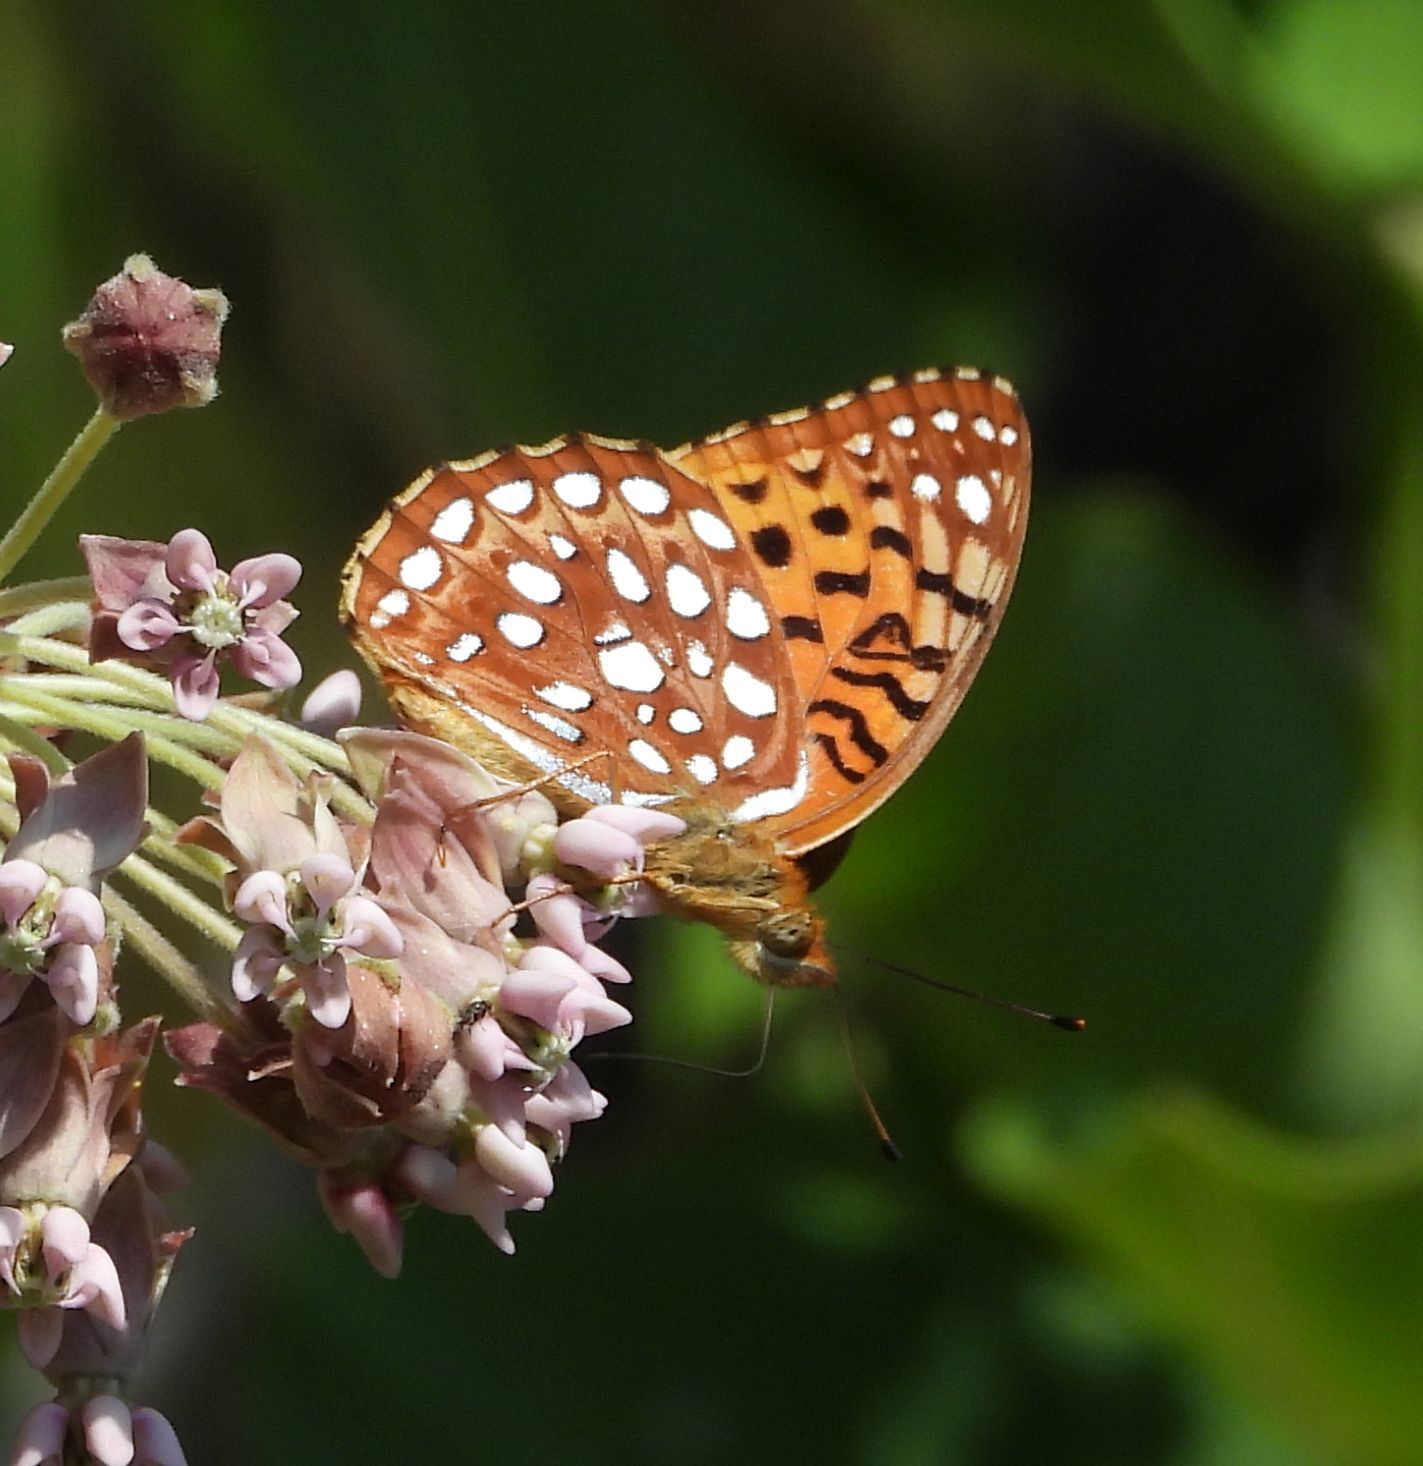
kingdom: Animalia
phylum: Arthropoda
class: Insecta
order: Lepidoptera
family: Nymphalidae
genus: Speyeria
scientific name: Speyeria aphrodite
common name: Aphrodite friitllary
